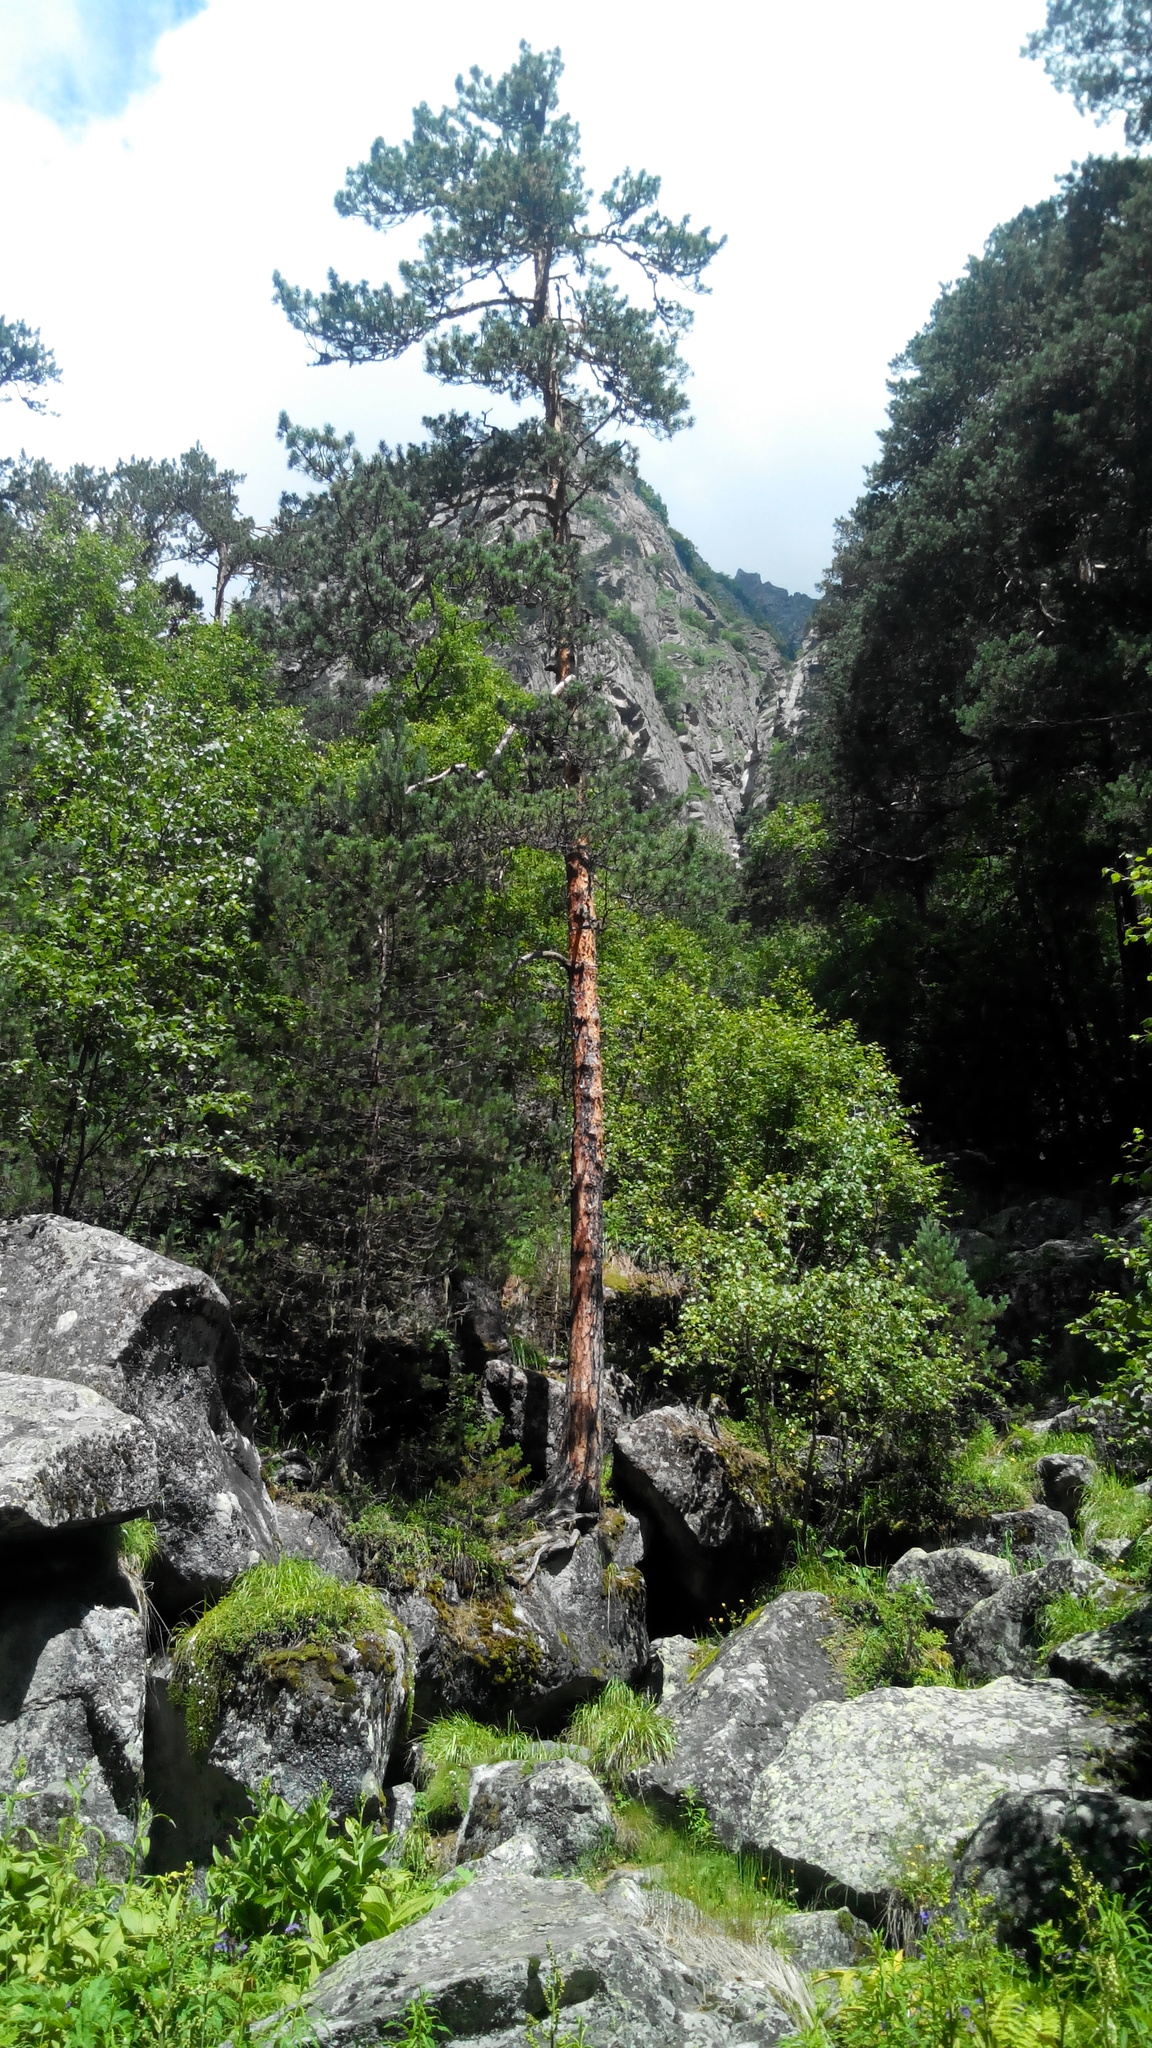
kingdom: Plantae
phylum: Tracheophyta
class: Pinopsida
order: Pinales
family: Pinaceae
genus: Pinus
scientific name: Pinus sylvestris
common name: Scots pine
